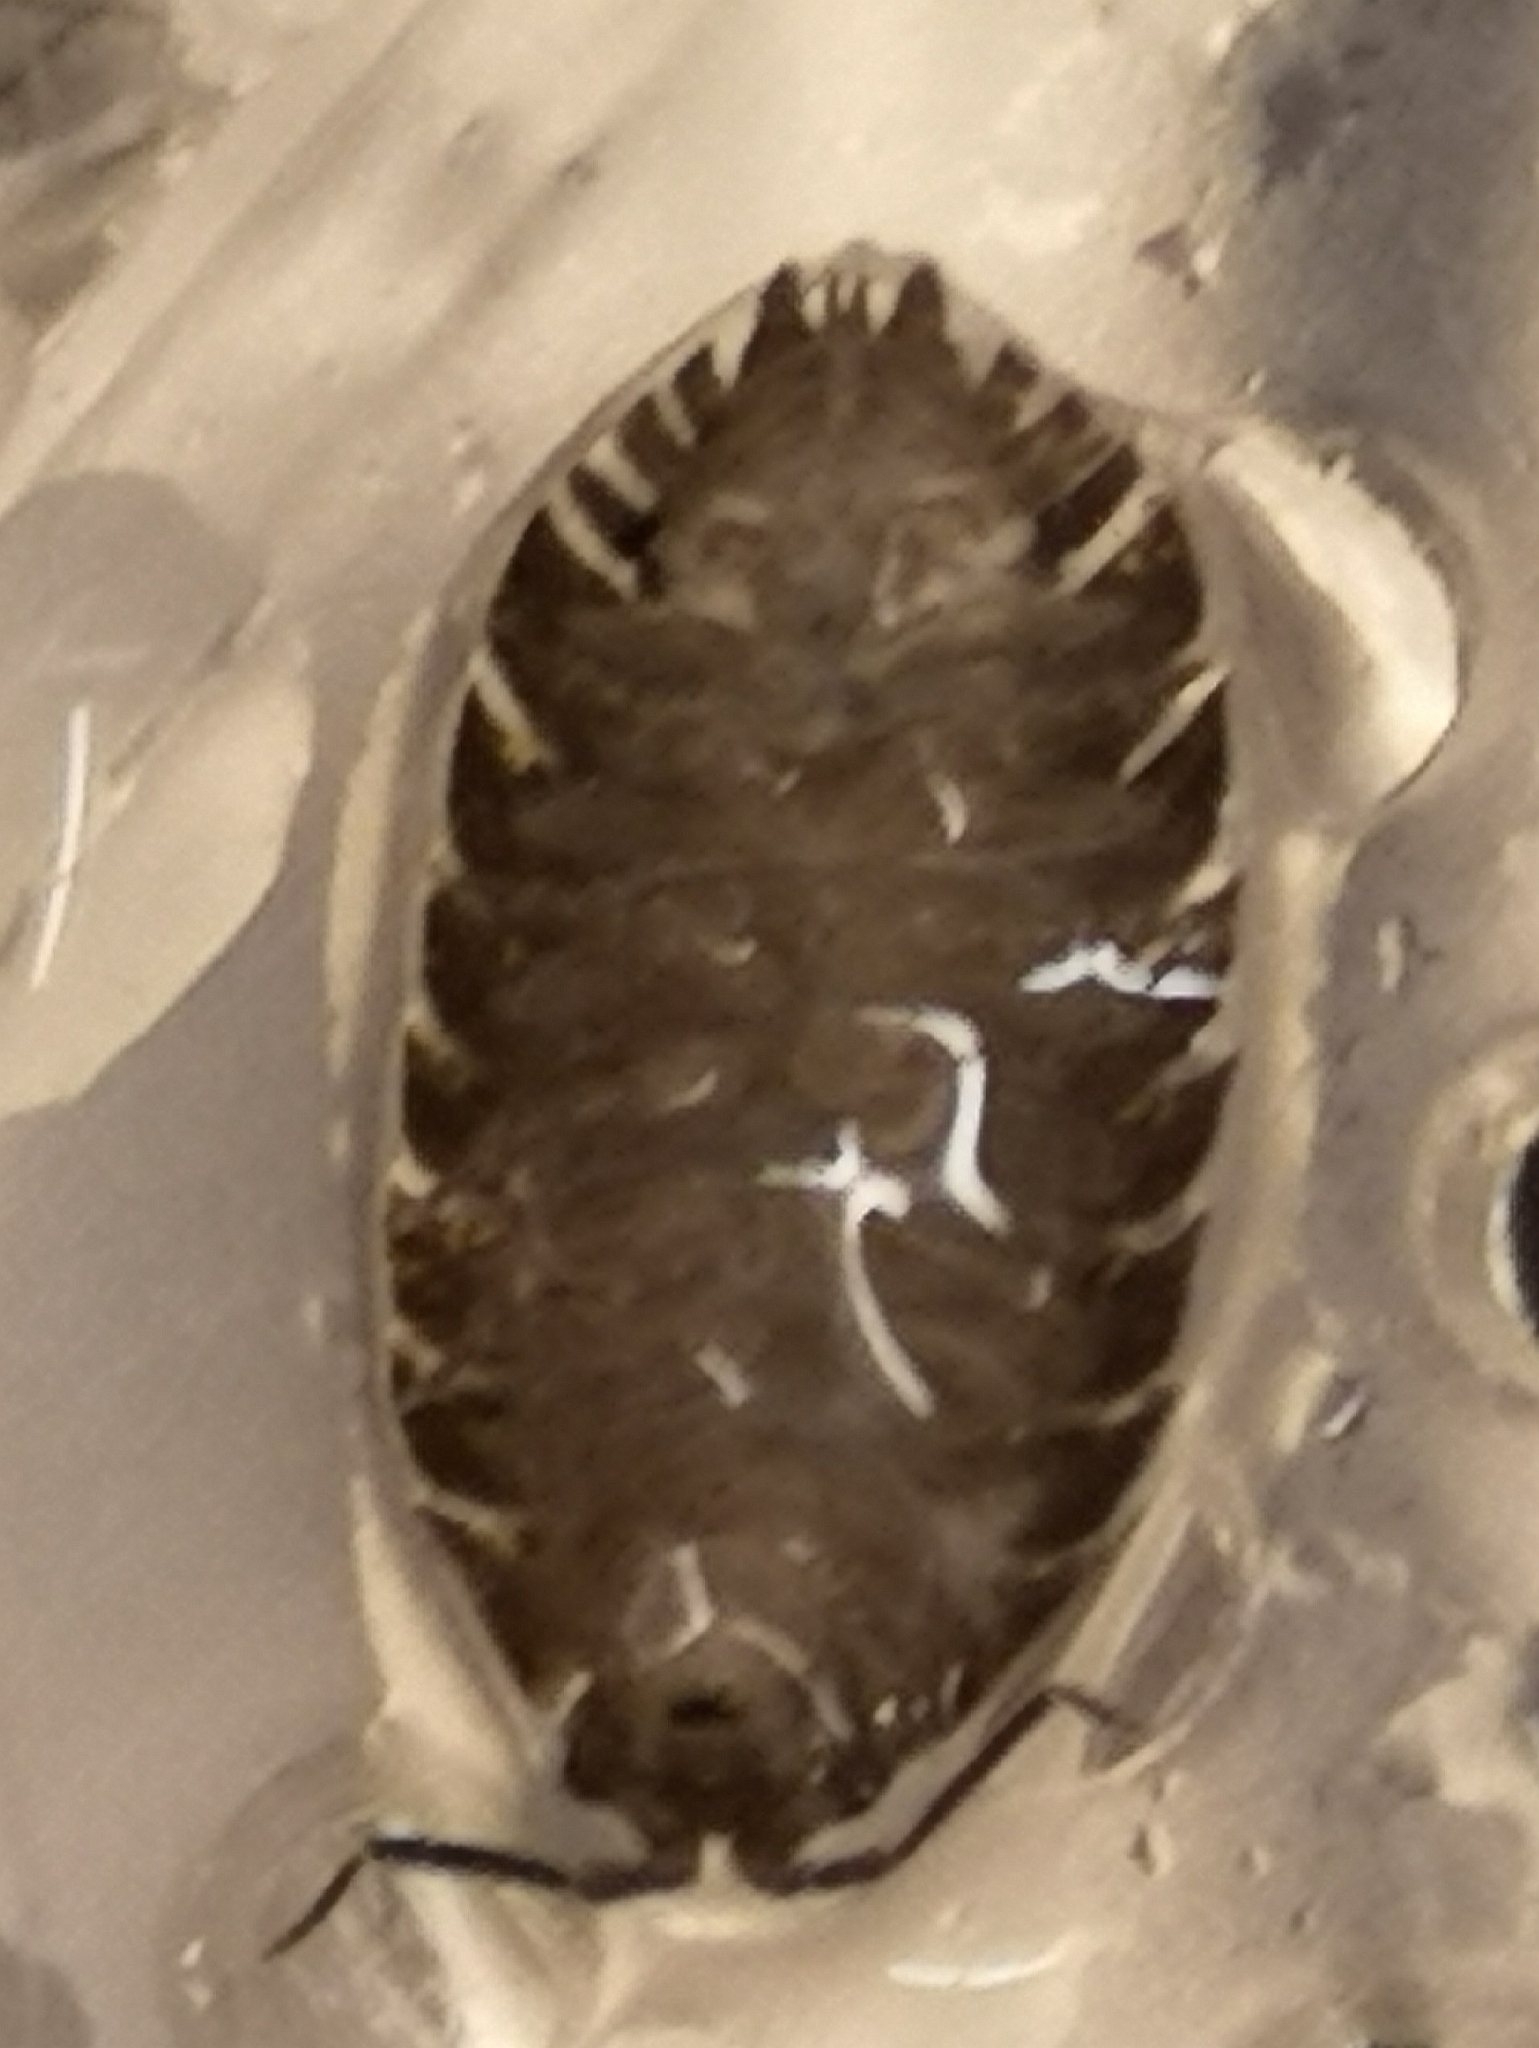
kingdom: Animalia
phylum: Arthropoda
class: Malacostraca
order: Isopoda
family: Porcellionidae
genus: Porcellio
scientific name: Porcellio scaber
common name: Common rough woodlouse
